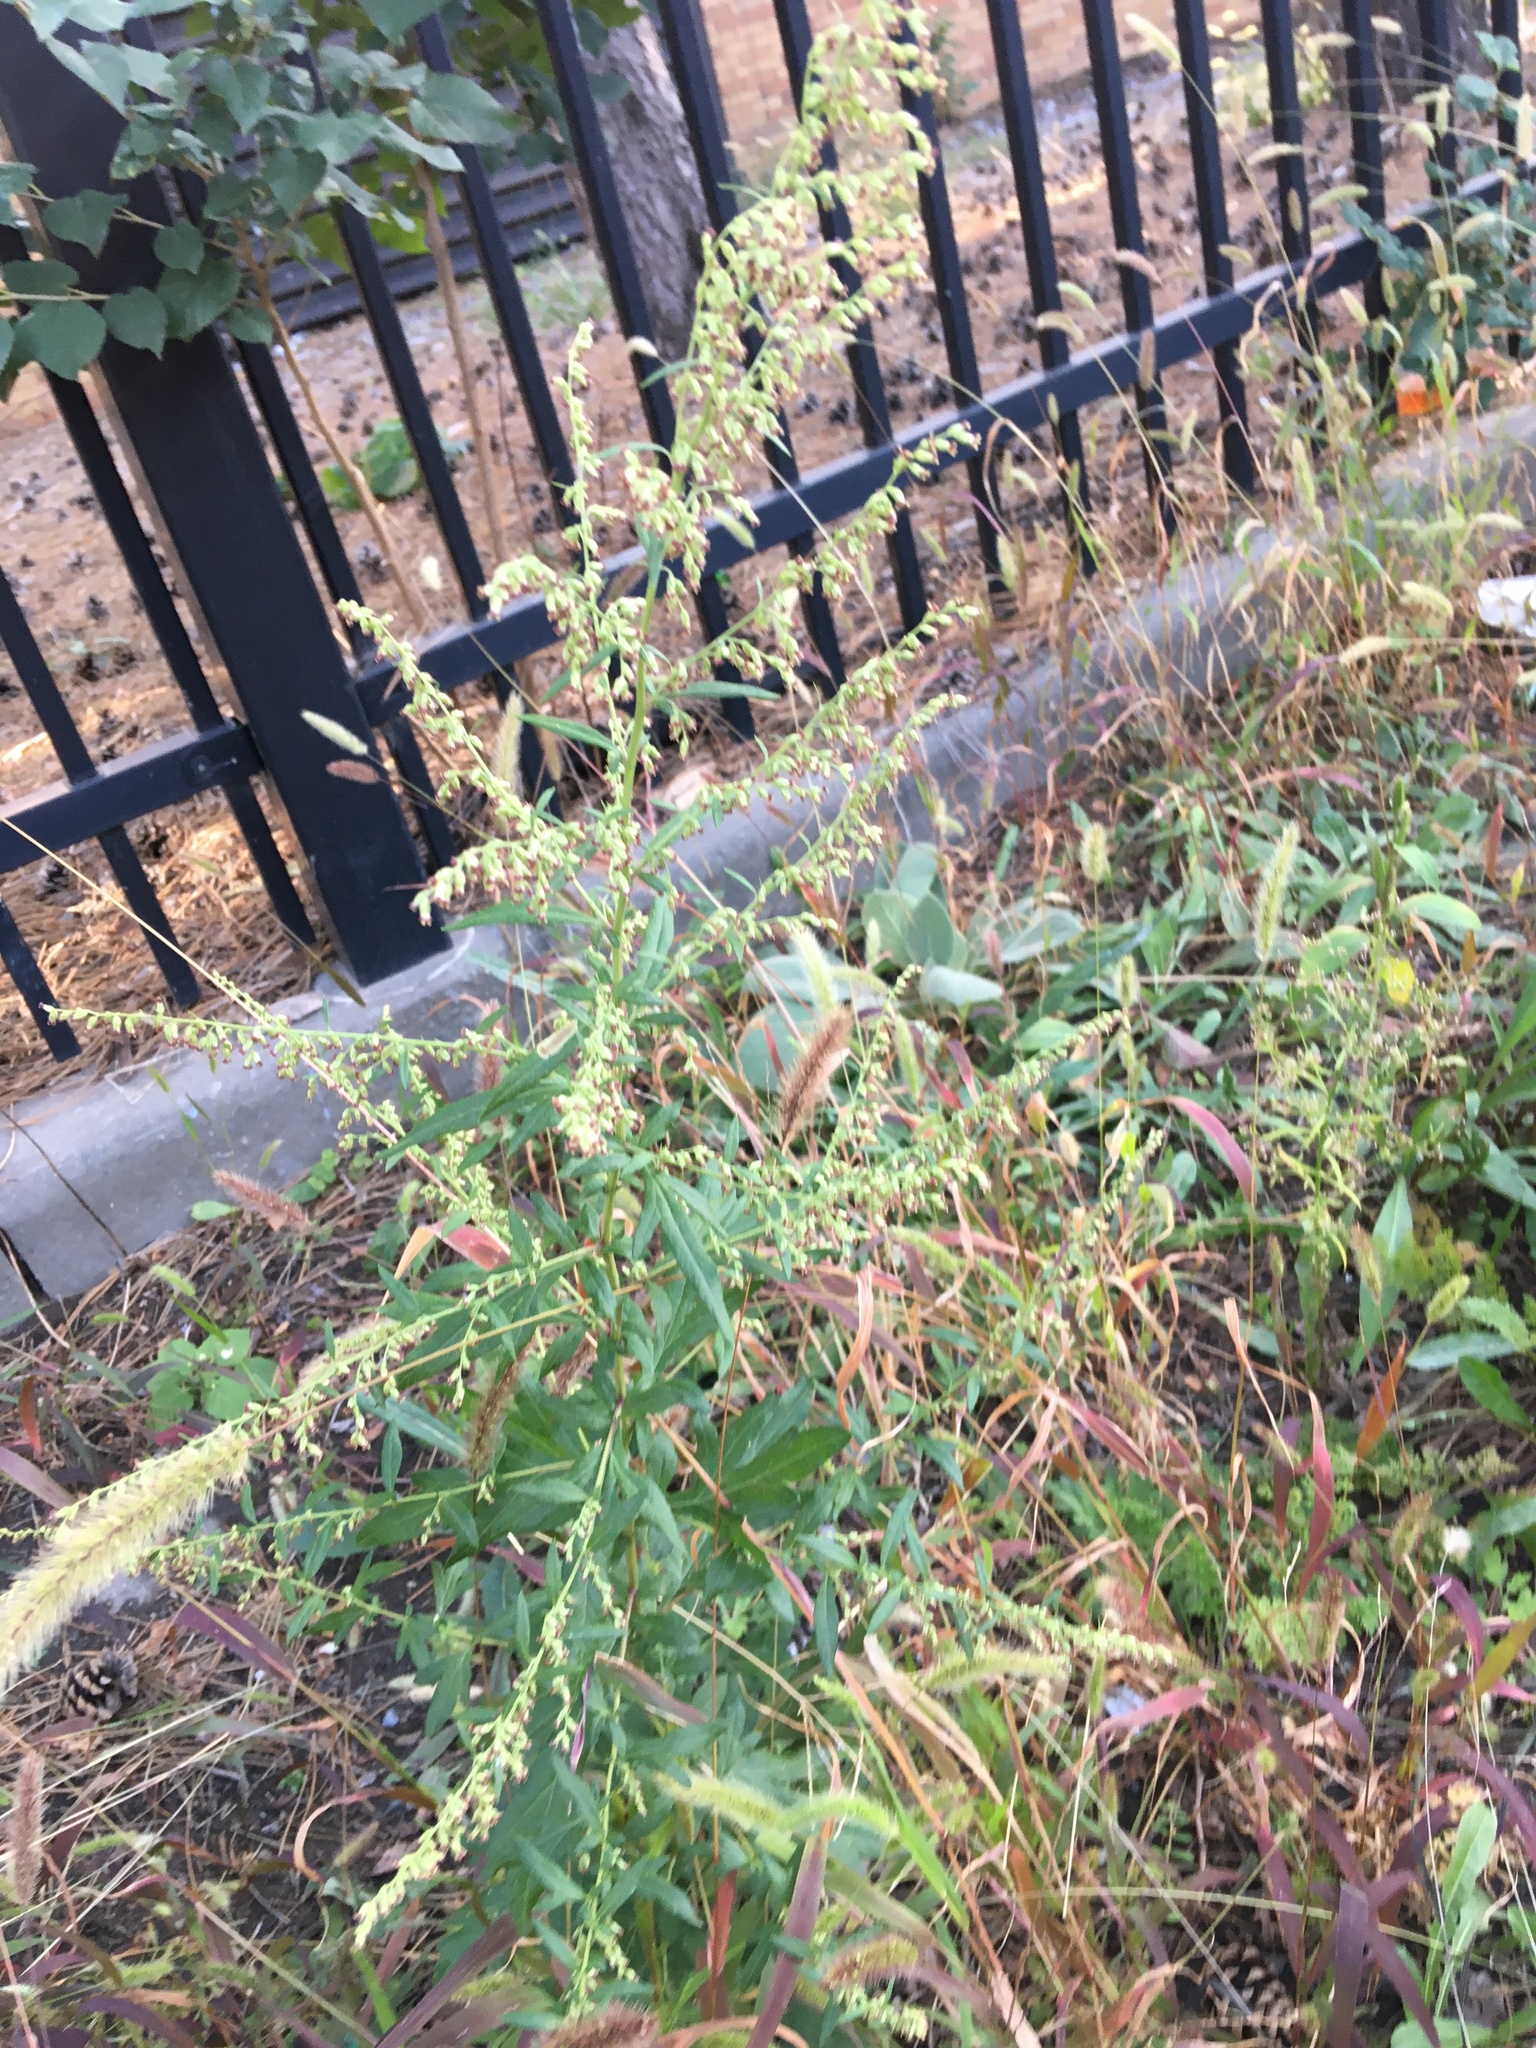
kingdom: Plantae
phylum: Tracheophyta
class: Magnoliopsida
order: Asterales
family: Asteraceae
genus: Artemisia
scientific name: Artemisia vulgaris
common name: Mugwort
